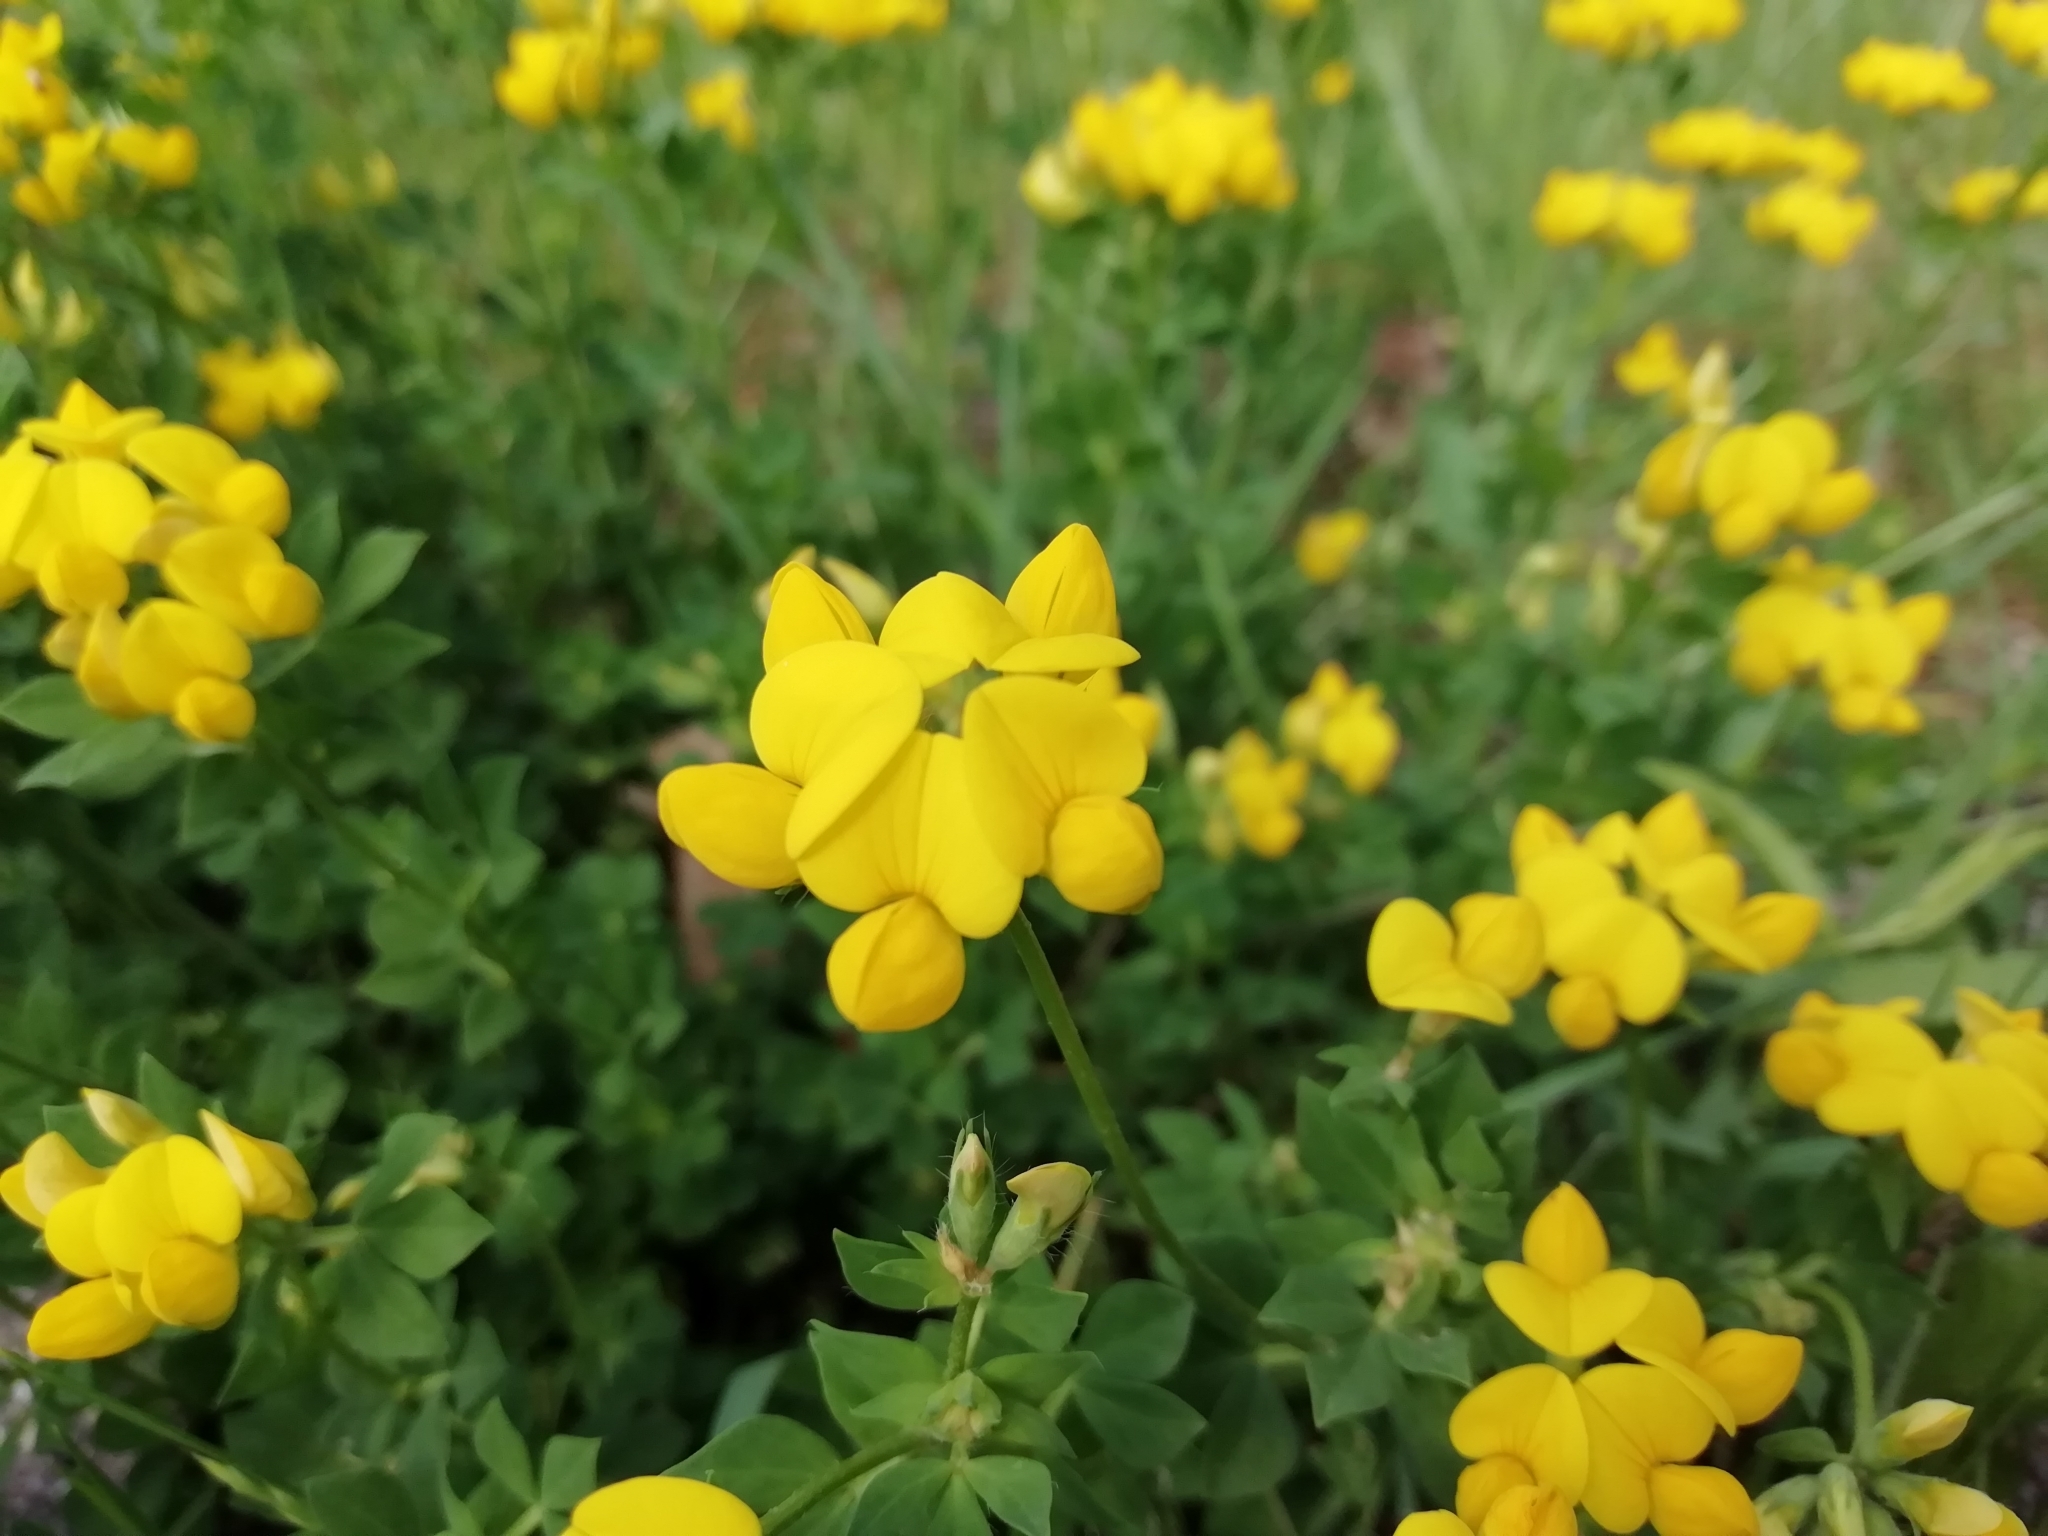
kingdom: Plantae
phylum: Tracheophyta
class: Magnoliopsida
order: Fabales
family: Fabaceae
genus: Lotus
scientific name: Lotus corniculatus
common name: Common bird's-foot-trefoil
